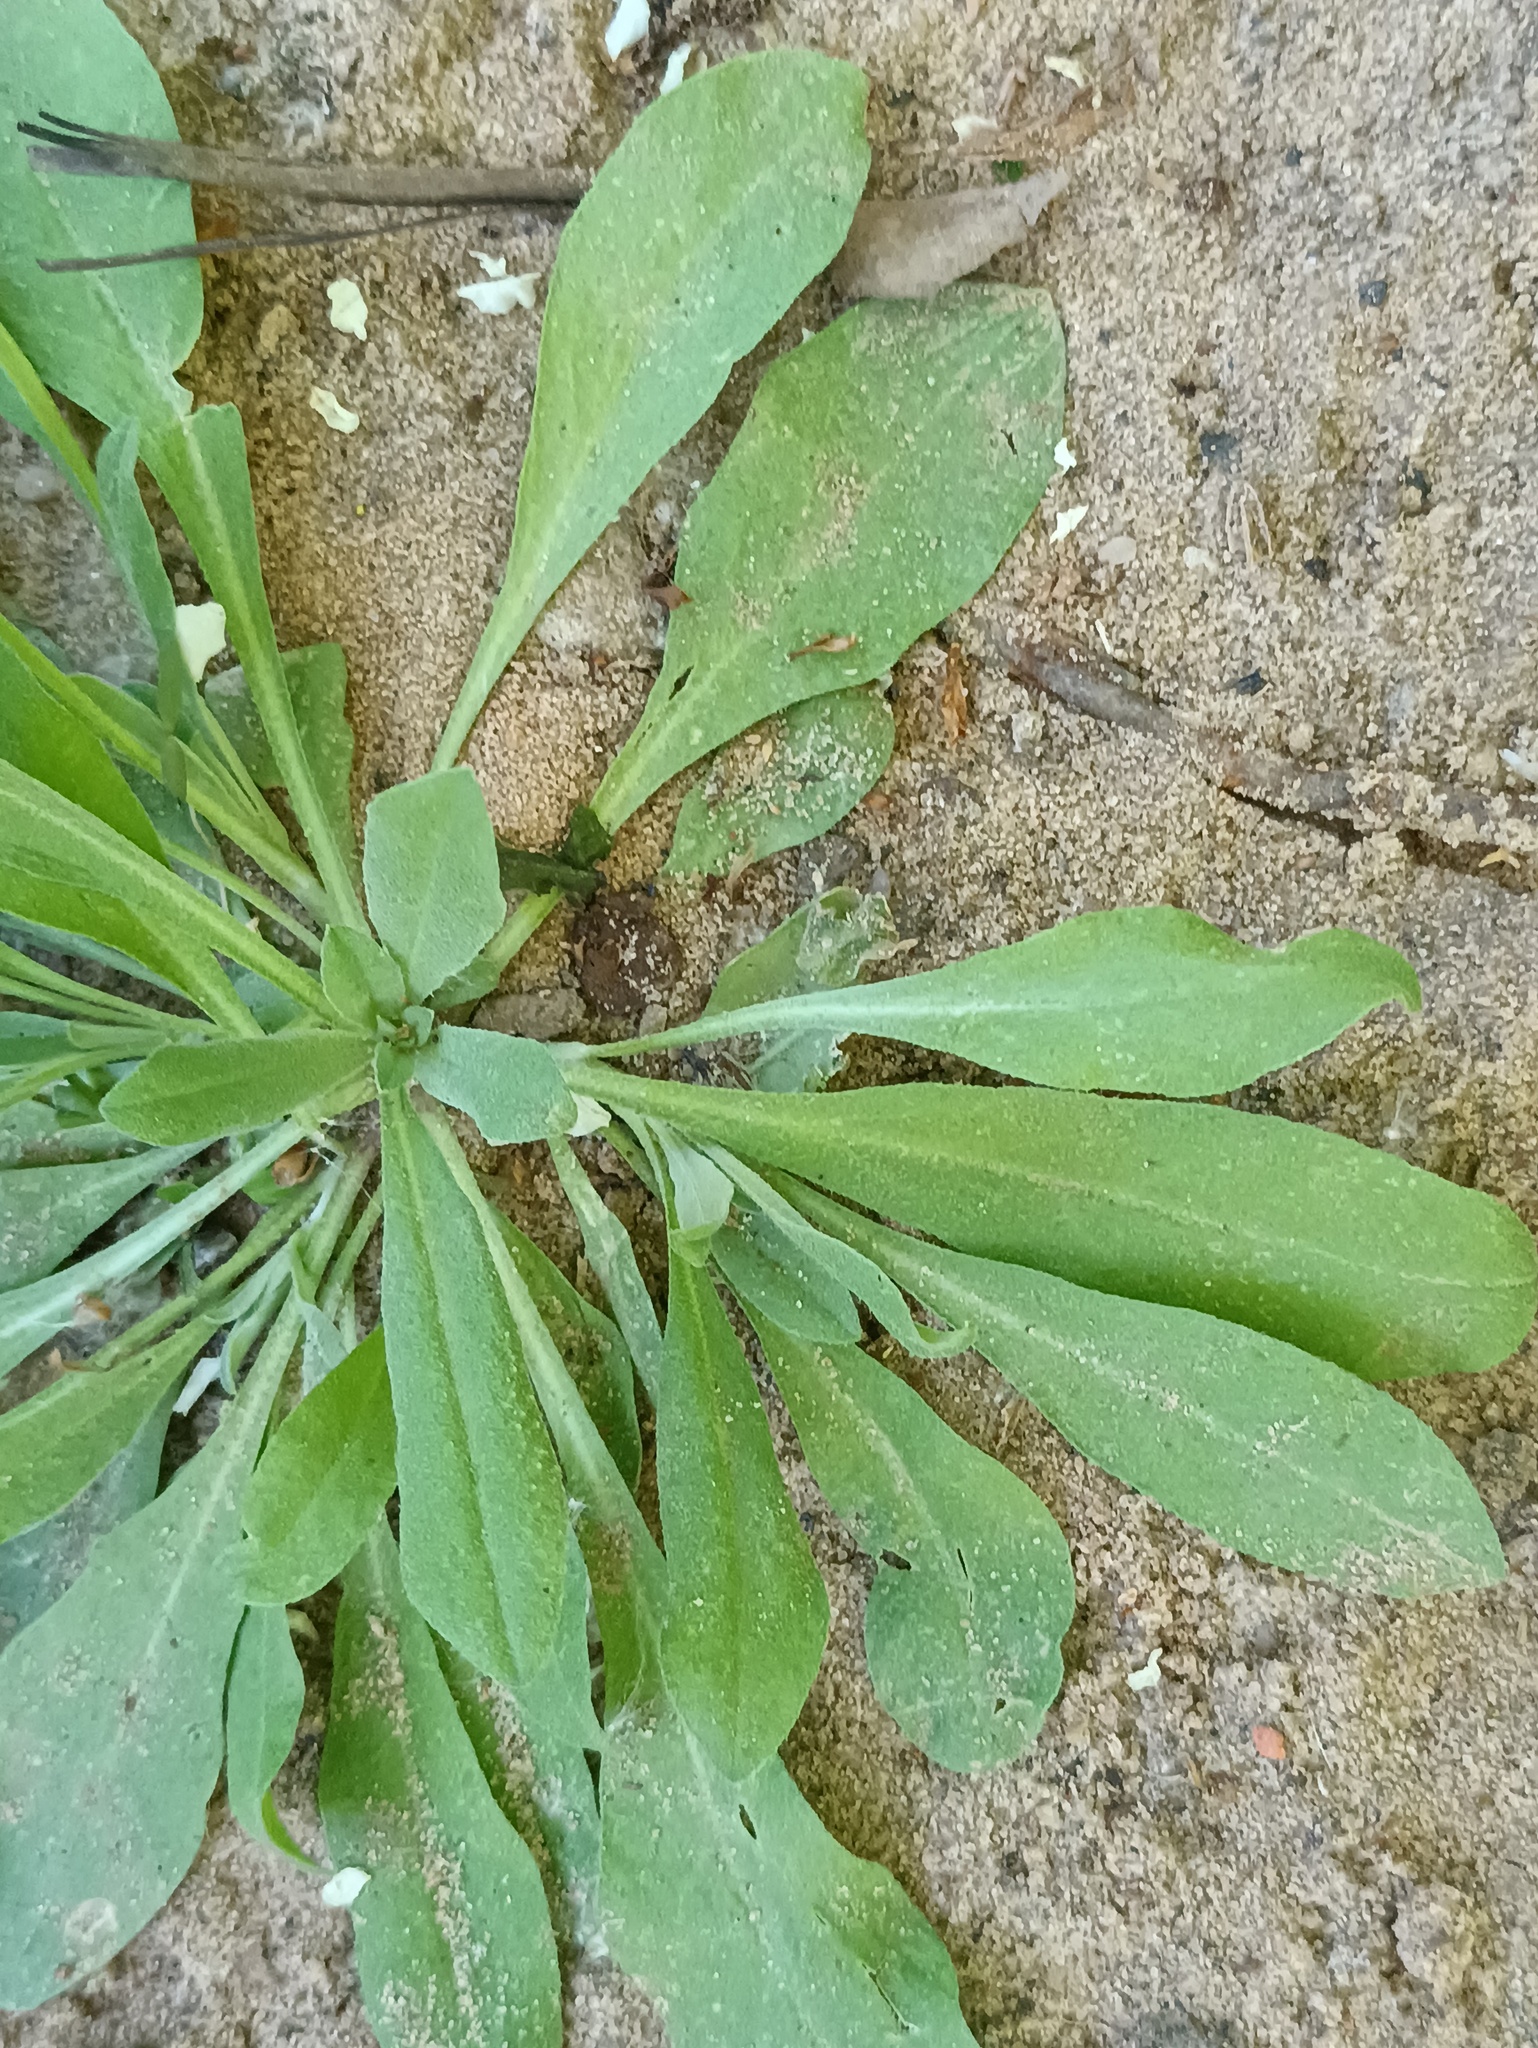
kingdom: Plantae
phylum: Tracheophyta
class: Magnoliopsida
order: Brassicales
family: Brassicaceae
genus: Berteroa
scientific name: Berteroa incana
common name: Hoary alison
